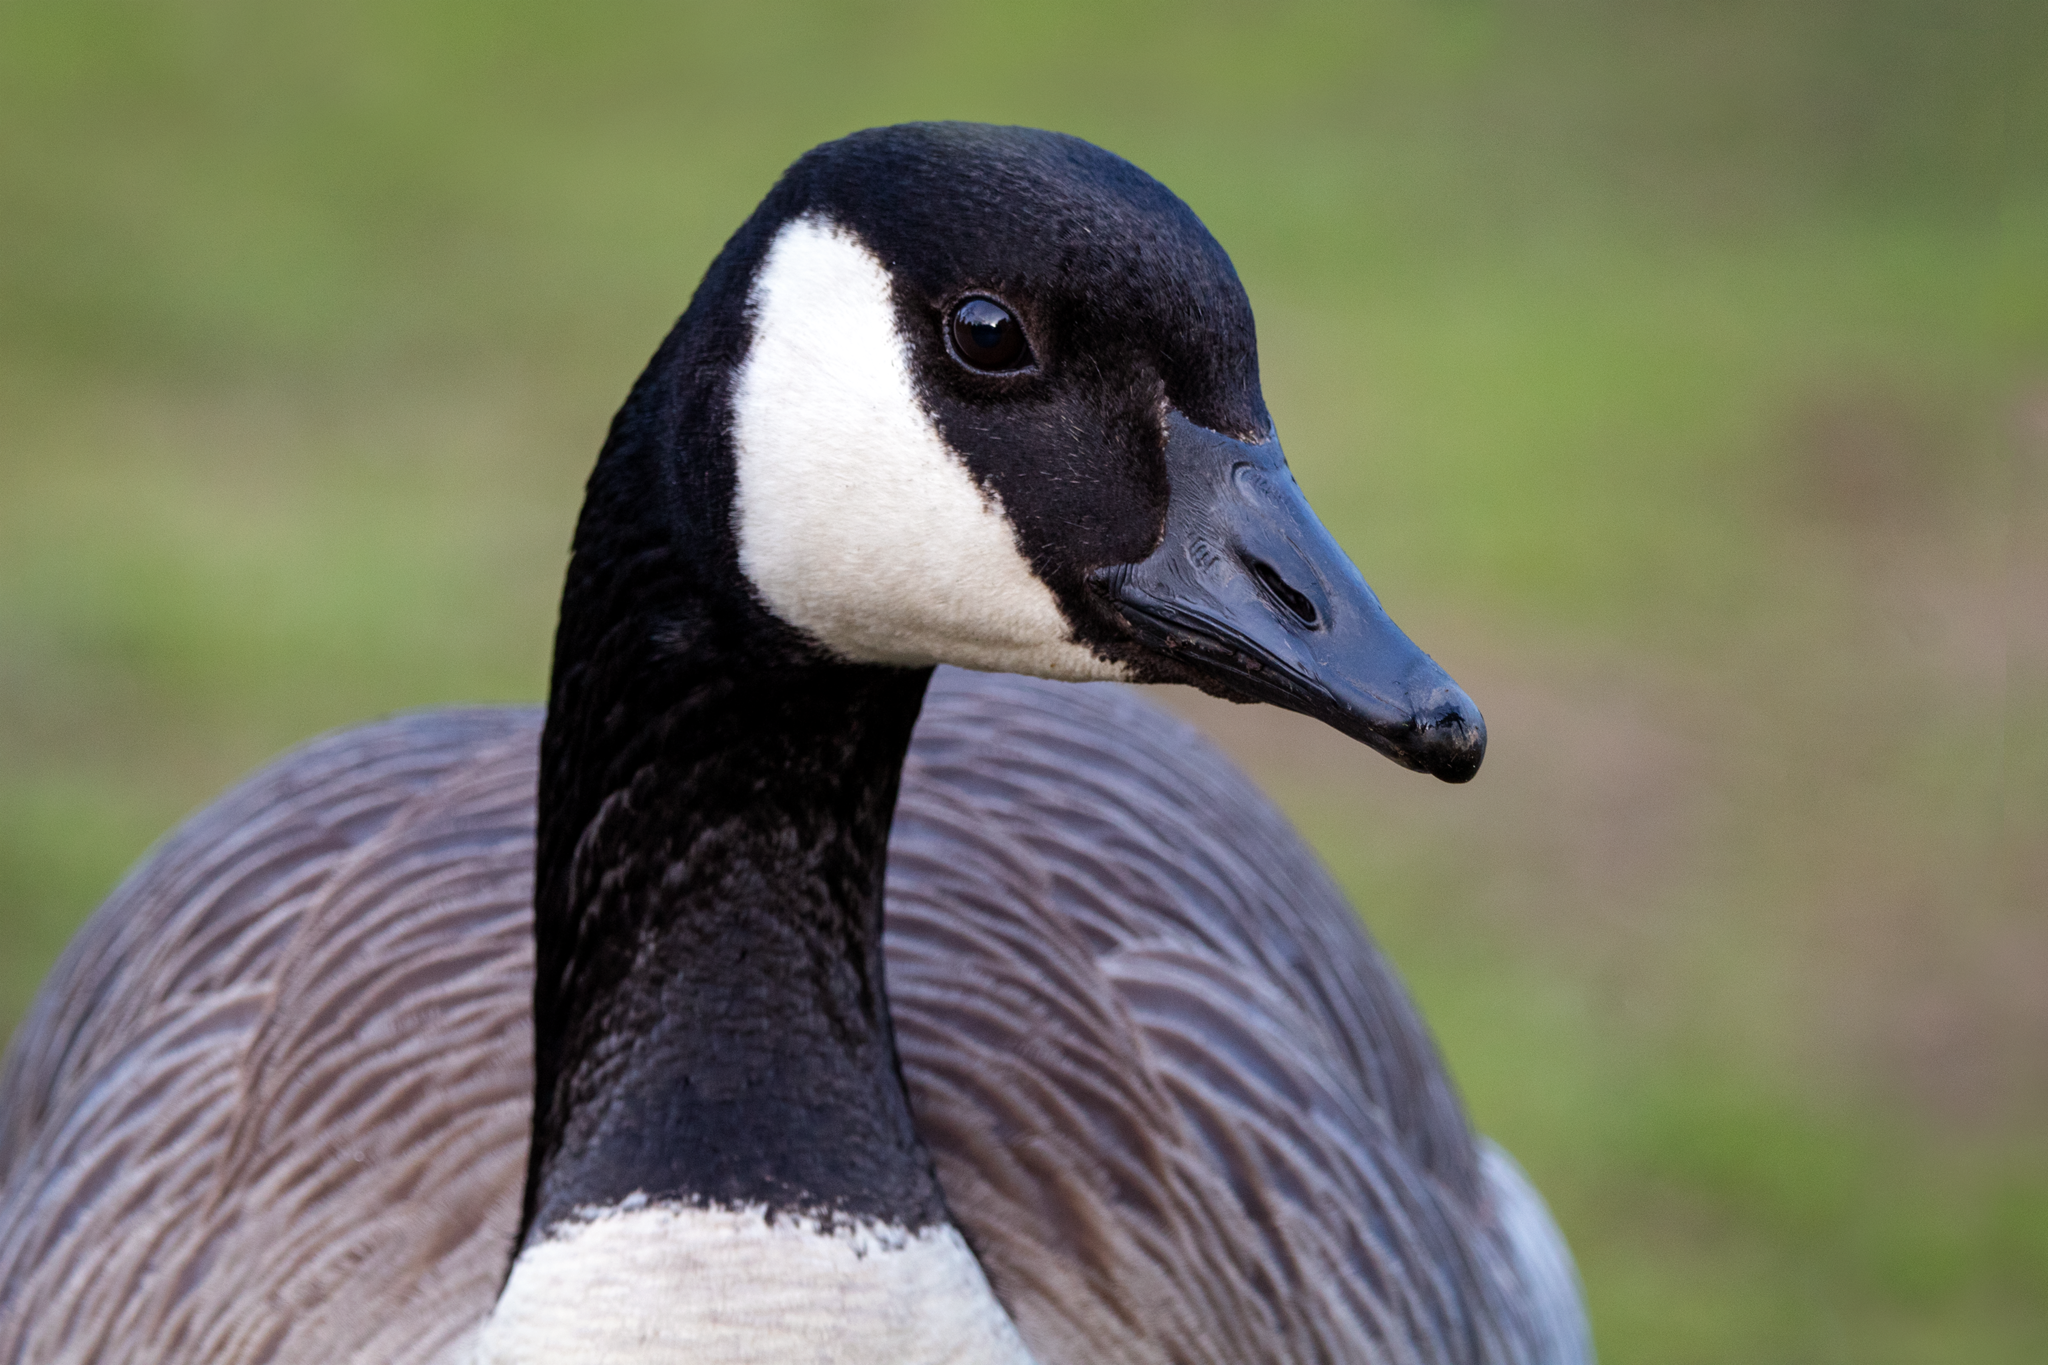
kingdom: Animalia
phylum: Chordata
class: Aves
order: Anseriformes
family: Anatidae
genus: Branta
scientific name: Branta canadensis
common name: Canada goose
